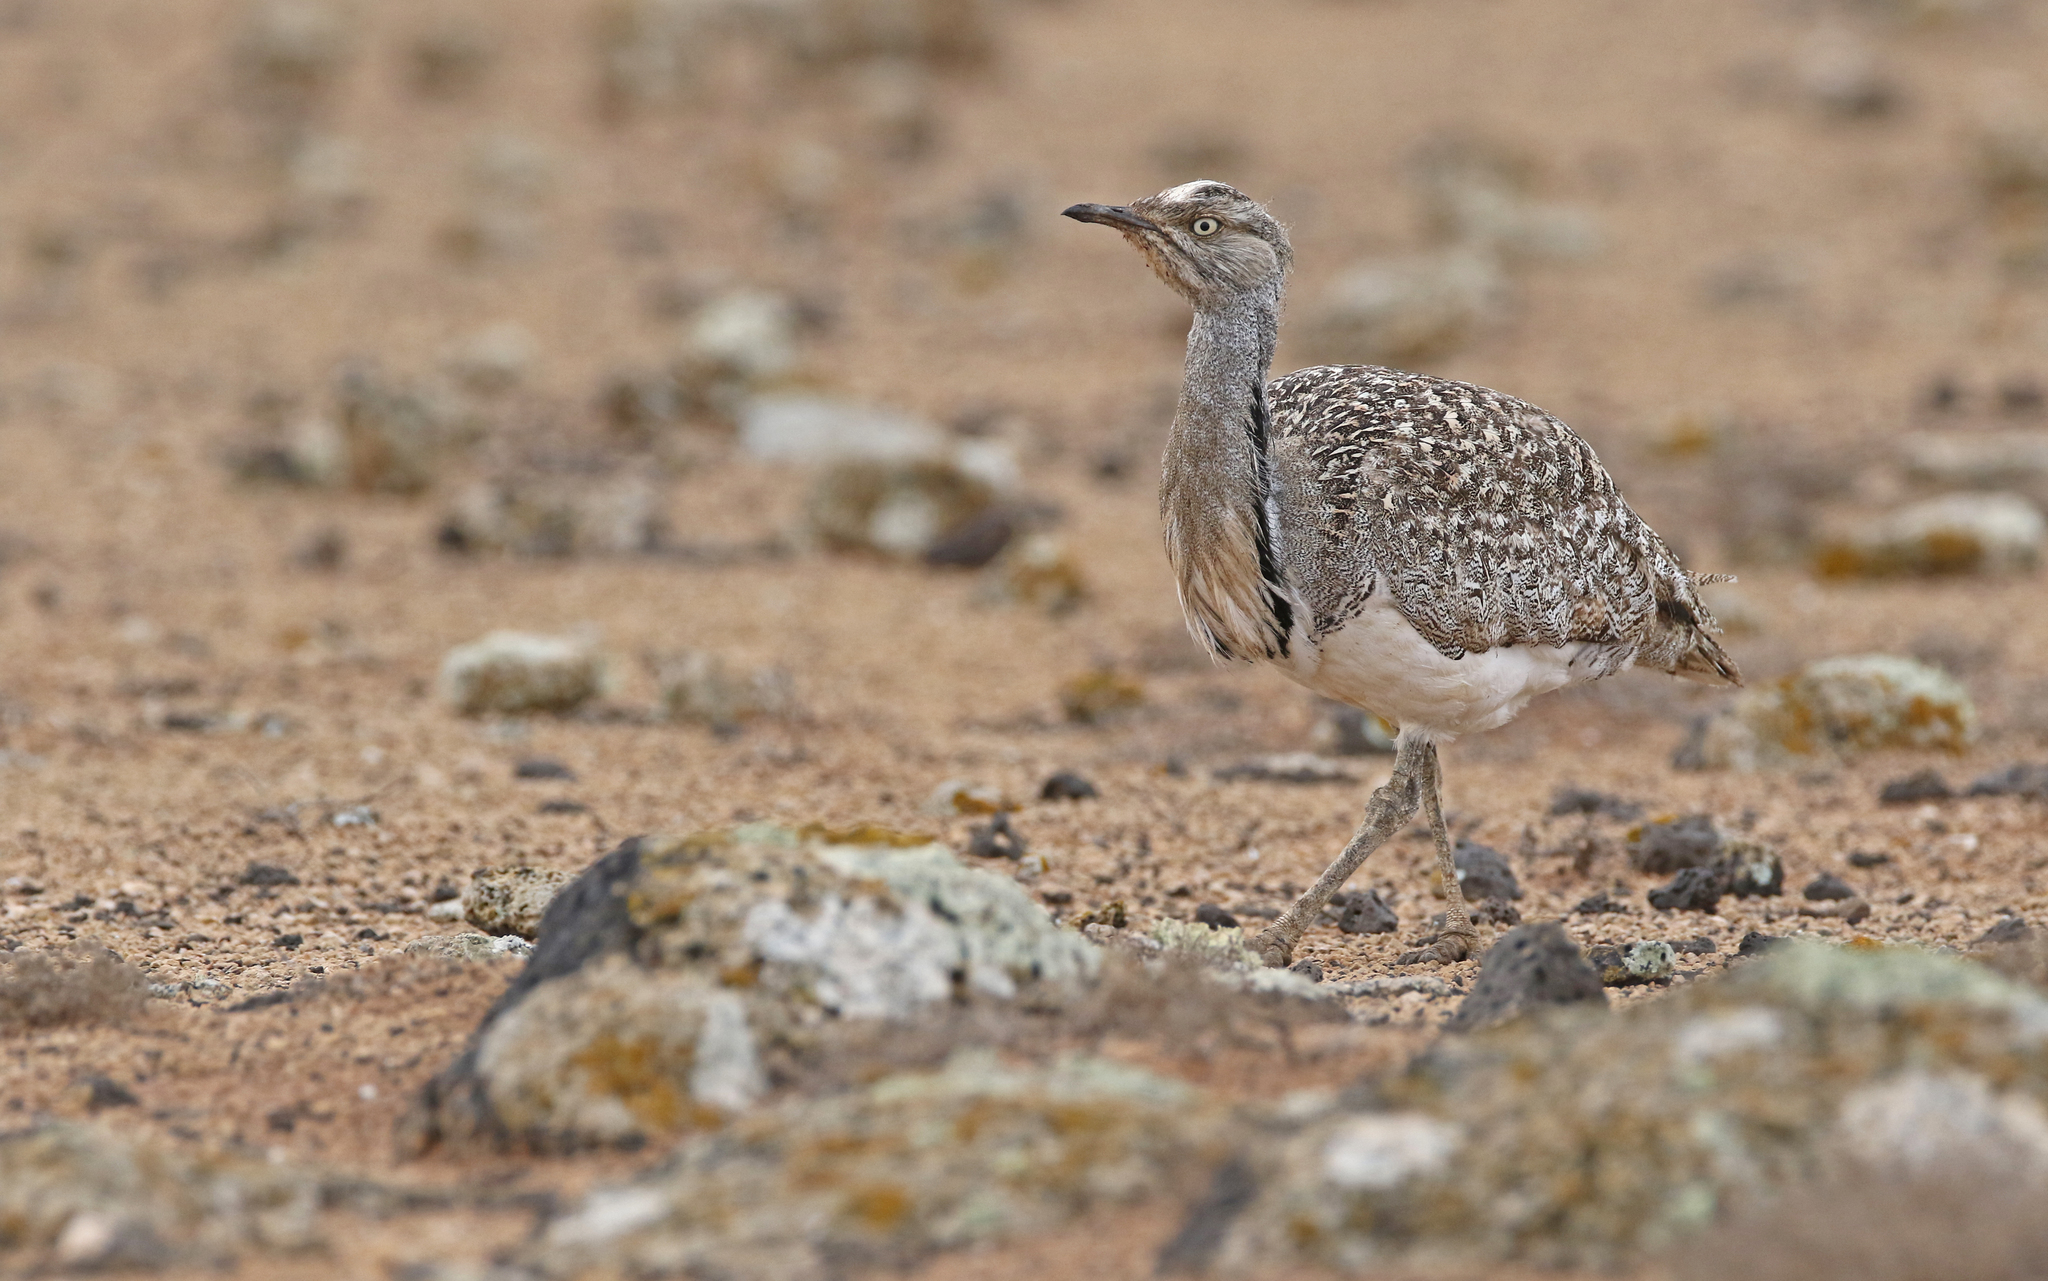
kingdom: Animalia
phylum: Chordata
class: Aves
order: Otidiformes
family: Otididae
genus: Chlamydotis
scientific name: Chlamydotis undulata
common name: Houbara bustard
